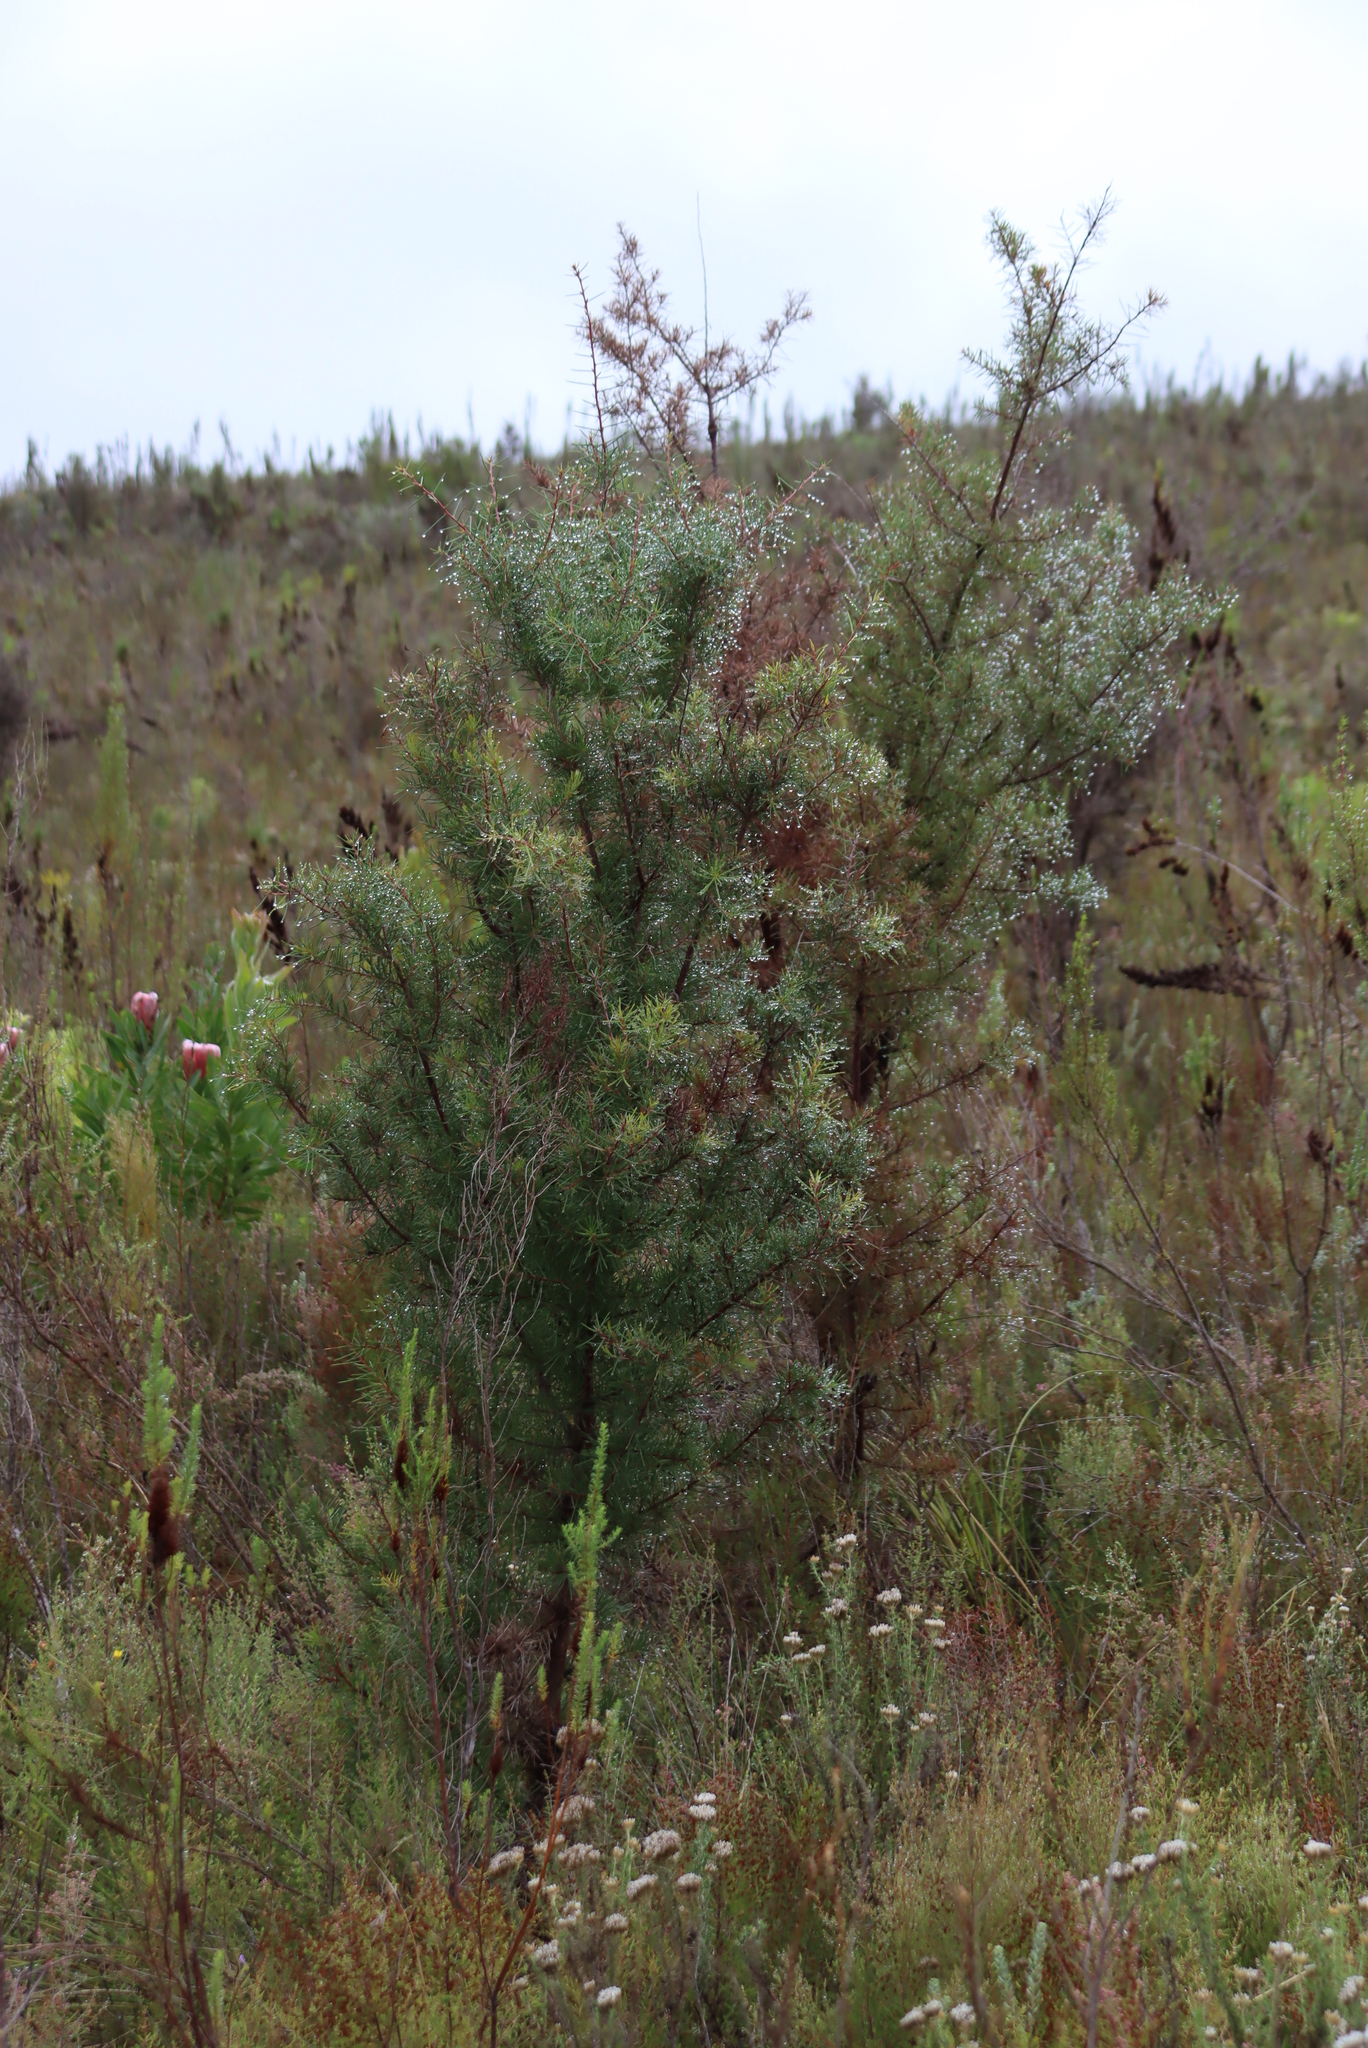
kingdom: Plantae
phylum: Tracheophyta
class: Magnoliopsida
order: Proteales
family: Proteaceae
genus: Hakea
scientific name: Hakea sericea
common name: Needle bush
